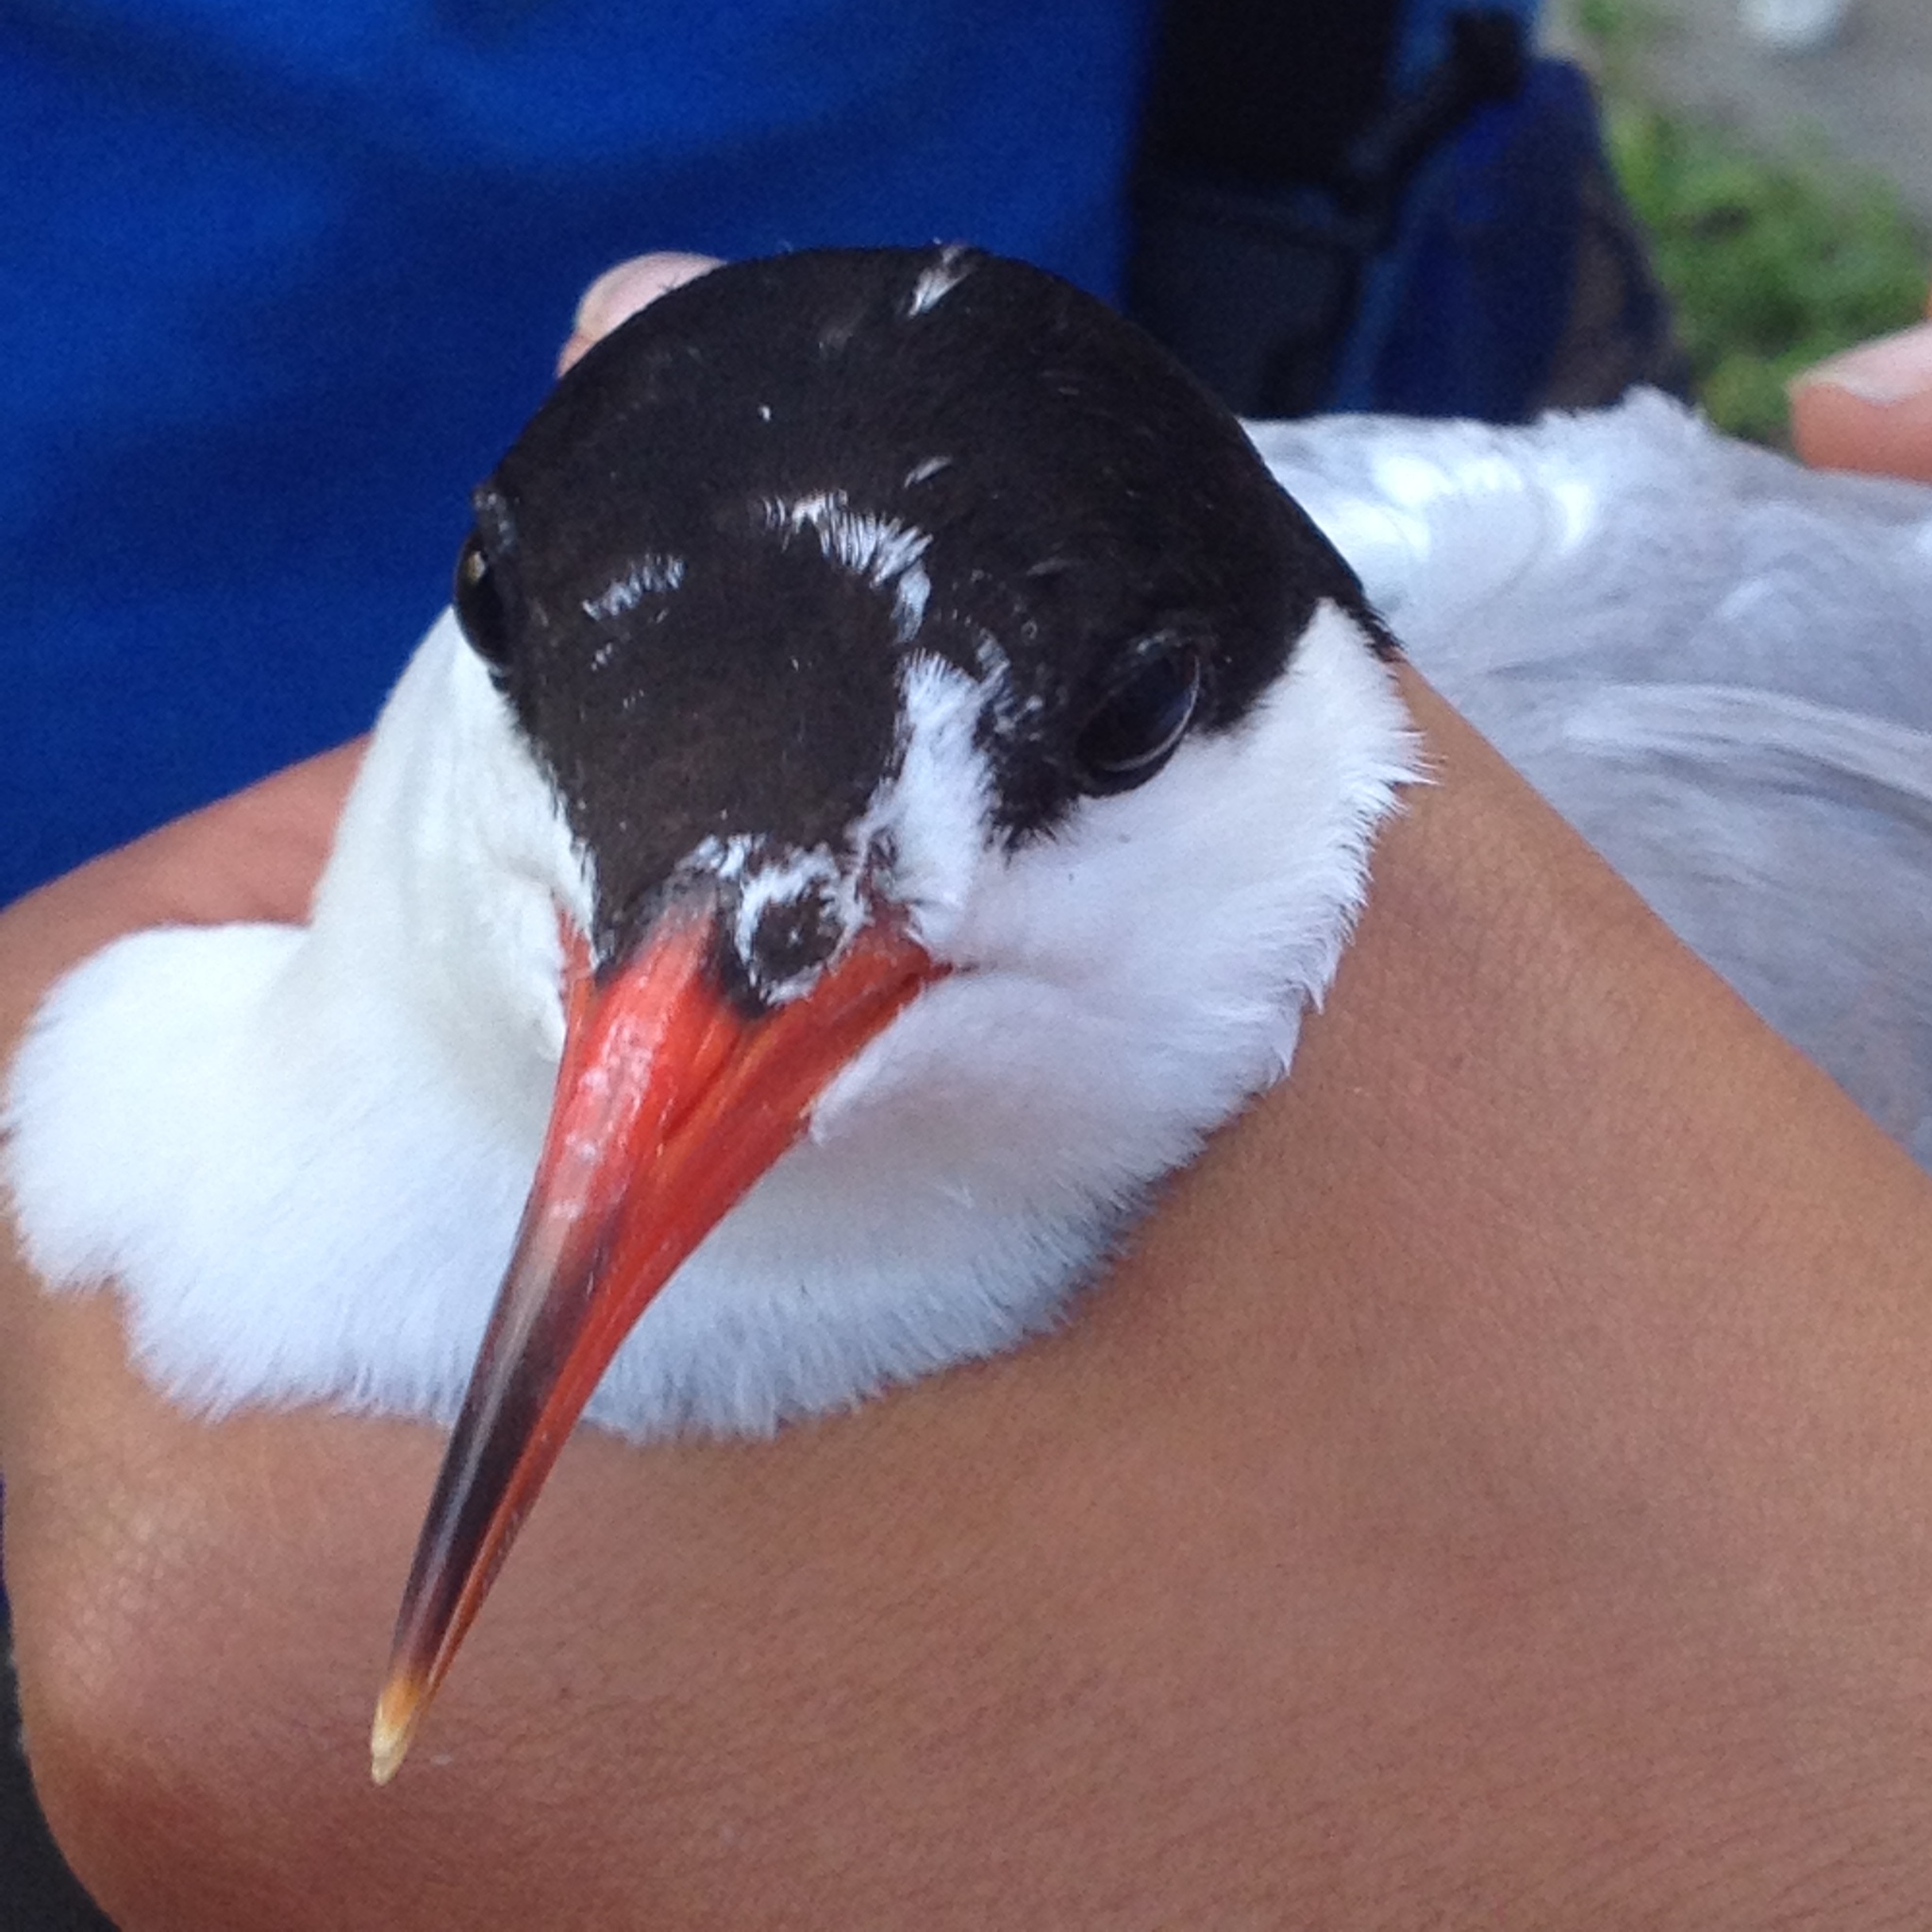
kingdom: Animalia
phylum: Chordata
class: Aves
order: Charadriiformes
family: Laridae
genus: Sterna
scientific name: Sterna hirundo
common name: Common tern
